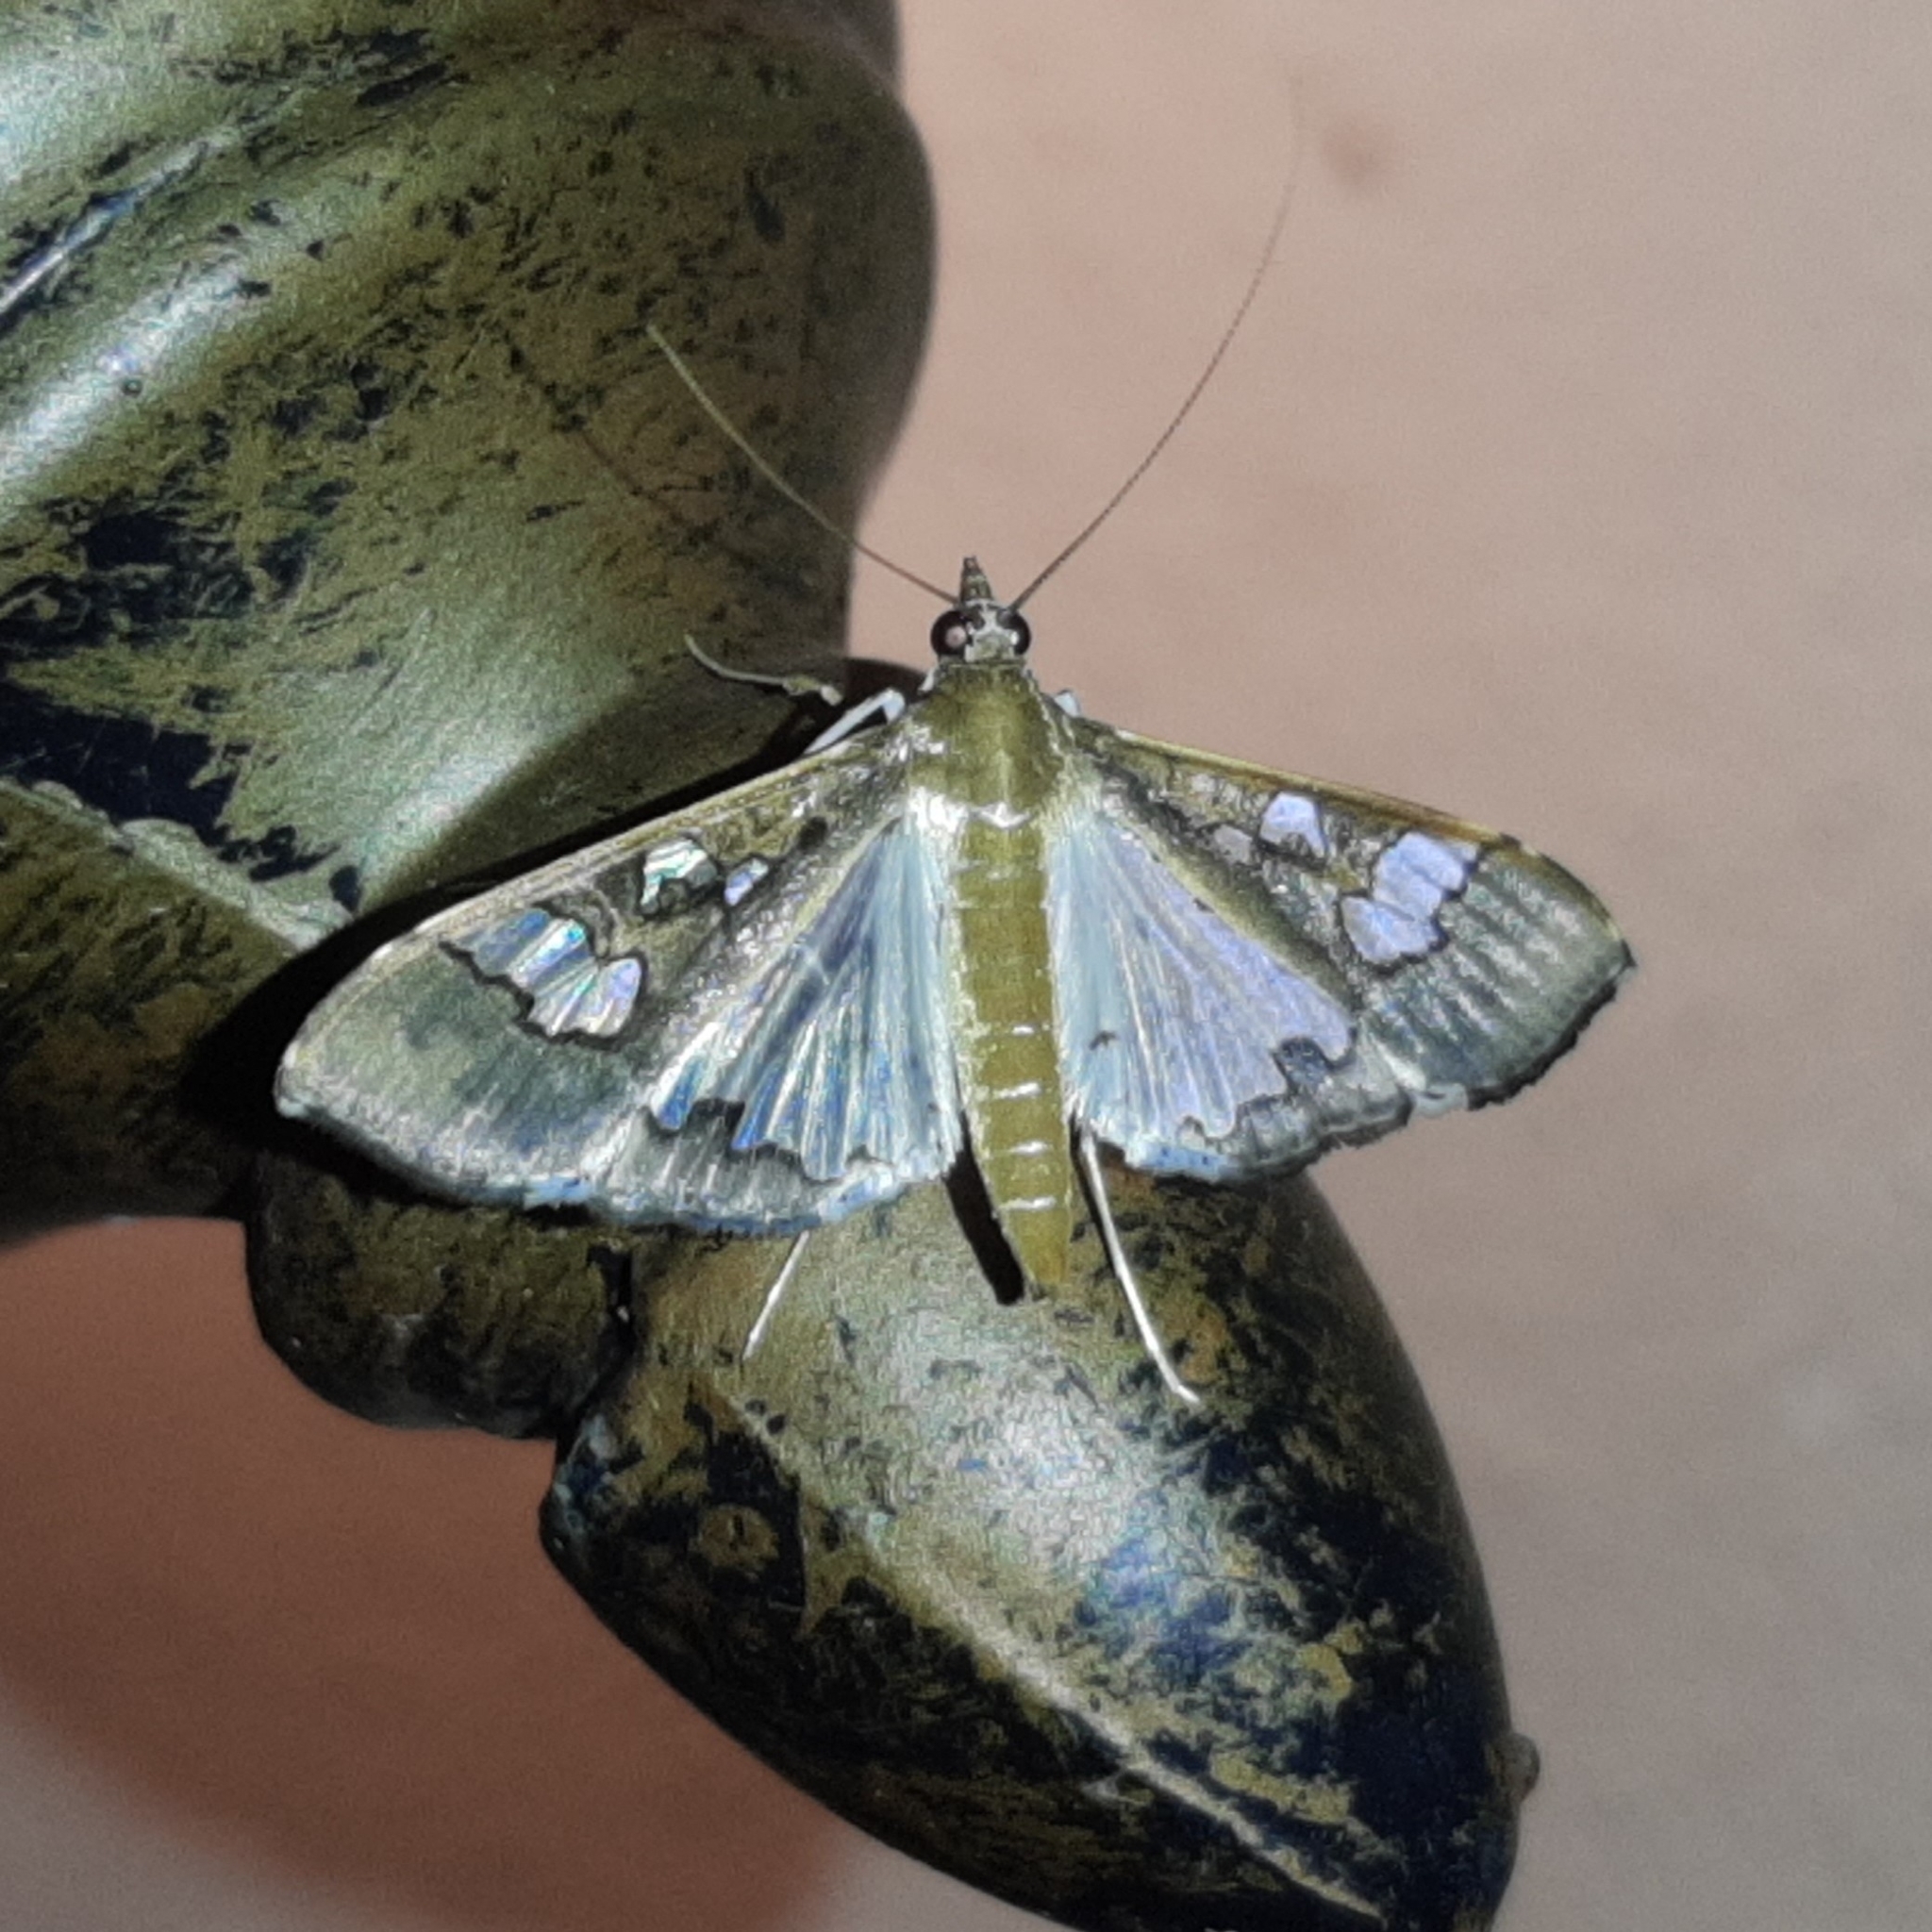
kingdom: Animalia
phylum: Arthropoda
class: Insecta
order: Lepidoptera
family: Crambidae
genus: Maruca
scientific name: Maruca vitrata
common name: Maruca pod borer
